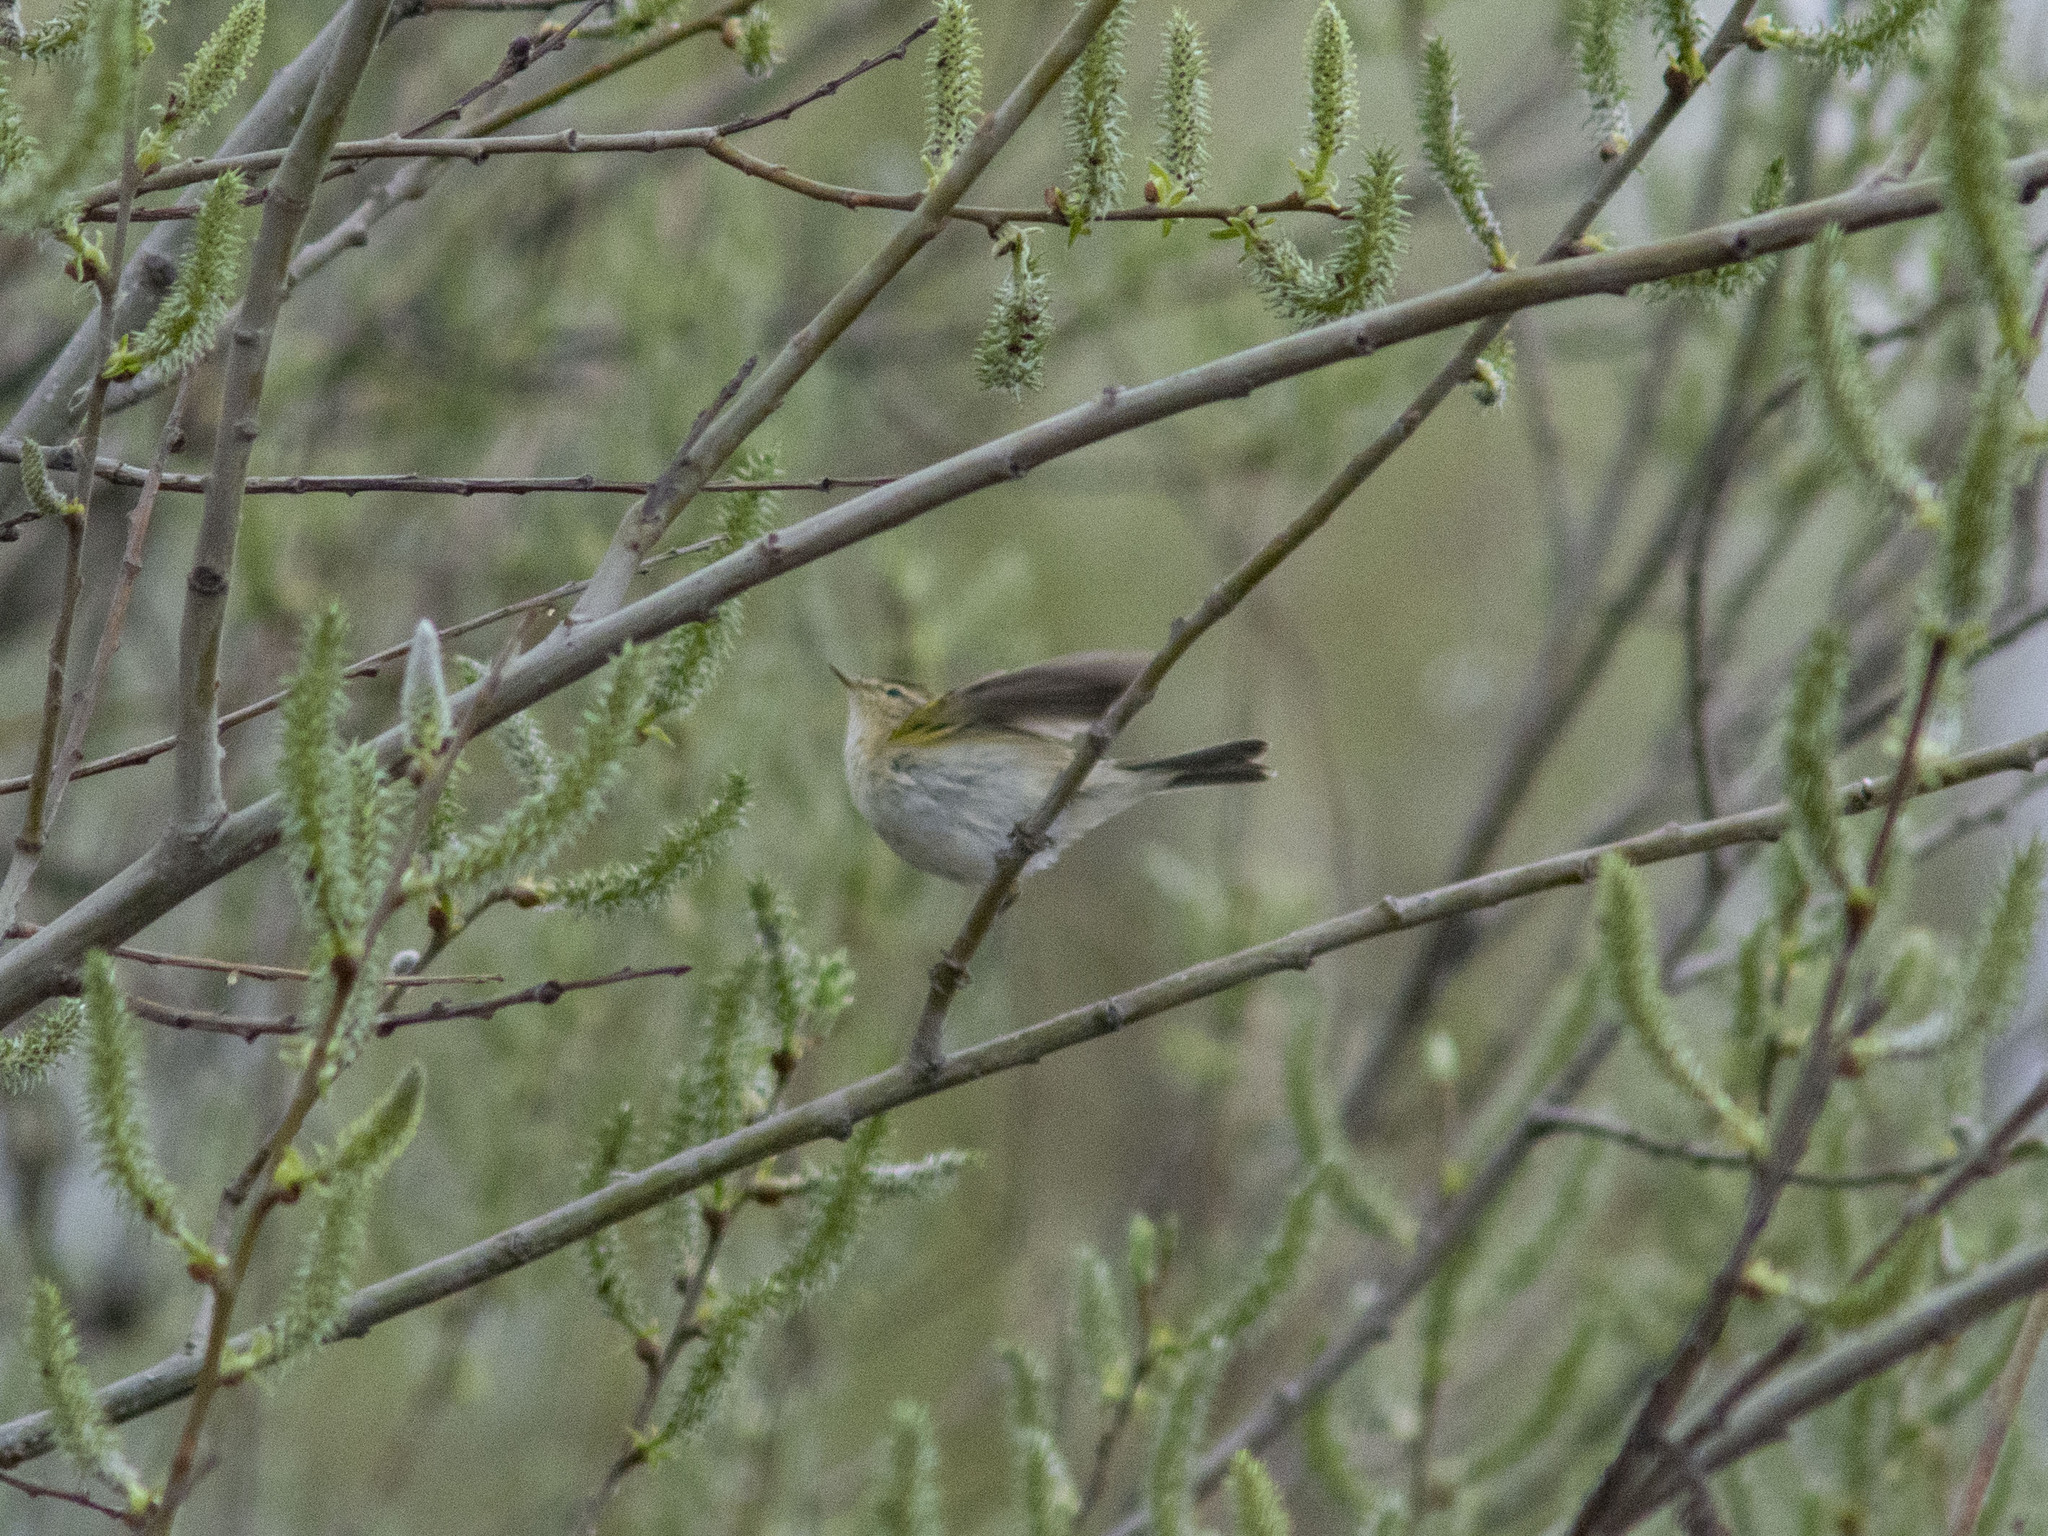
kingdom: Animalia
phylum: Chordata
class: Aves
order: Passeriformes
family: Phylloscopidae
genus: Phylloscopus
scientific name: Phylloscopus collybita
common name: Common chiffchaff
